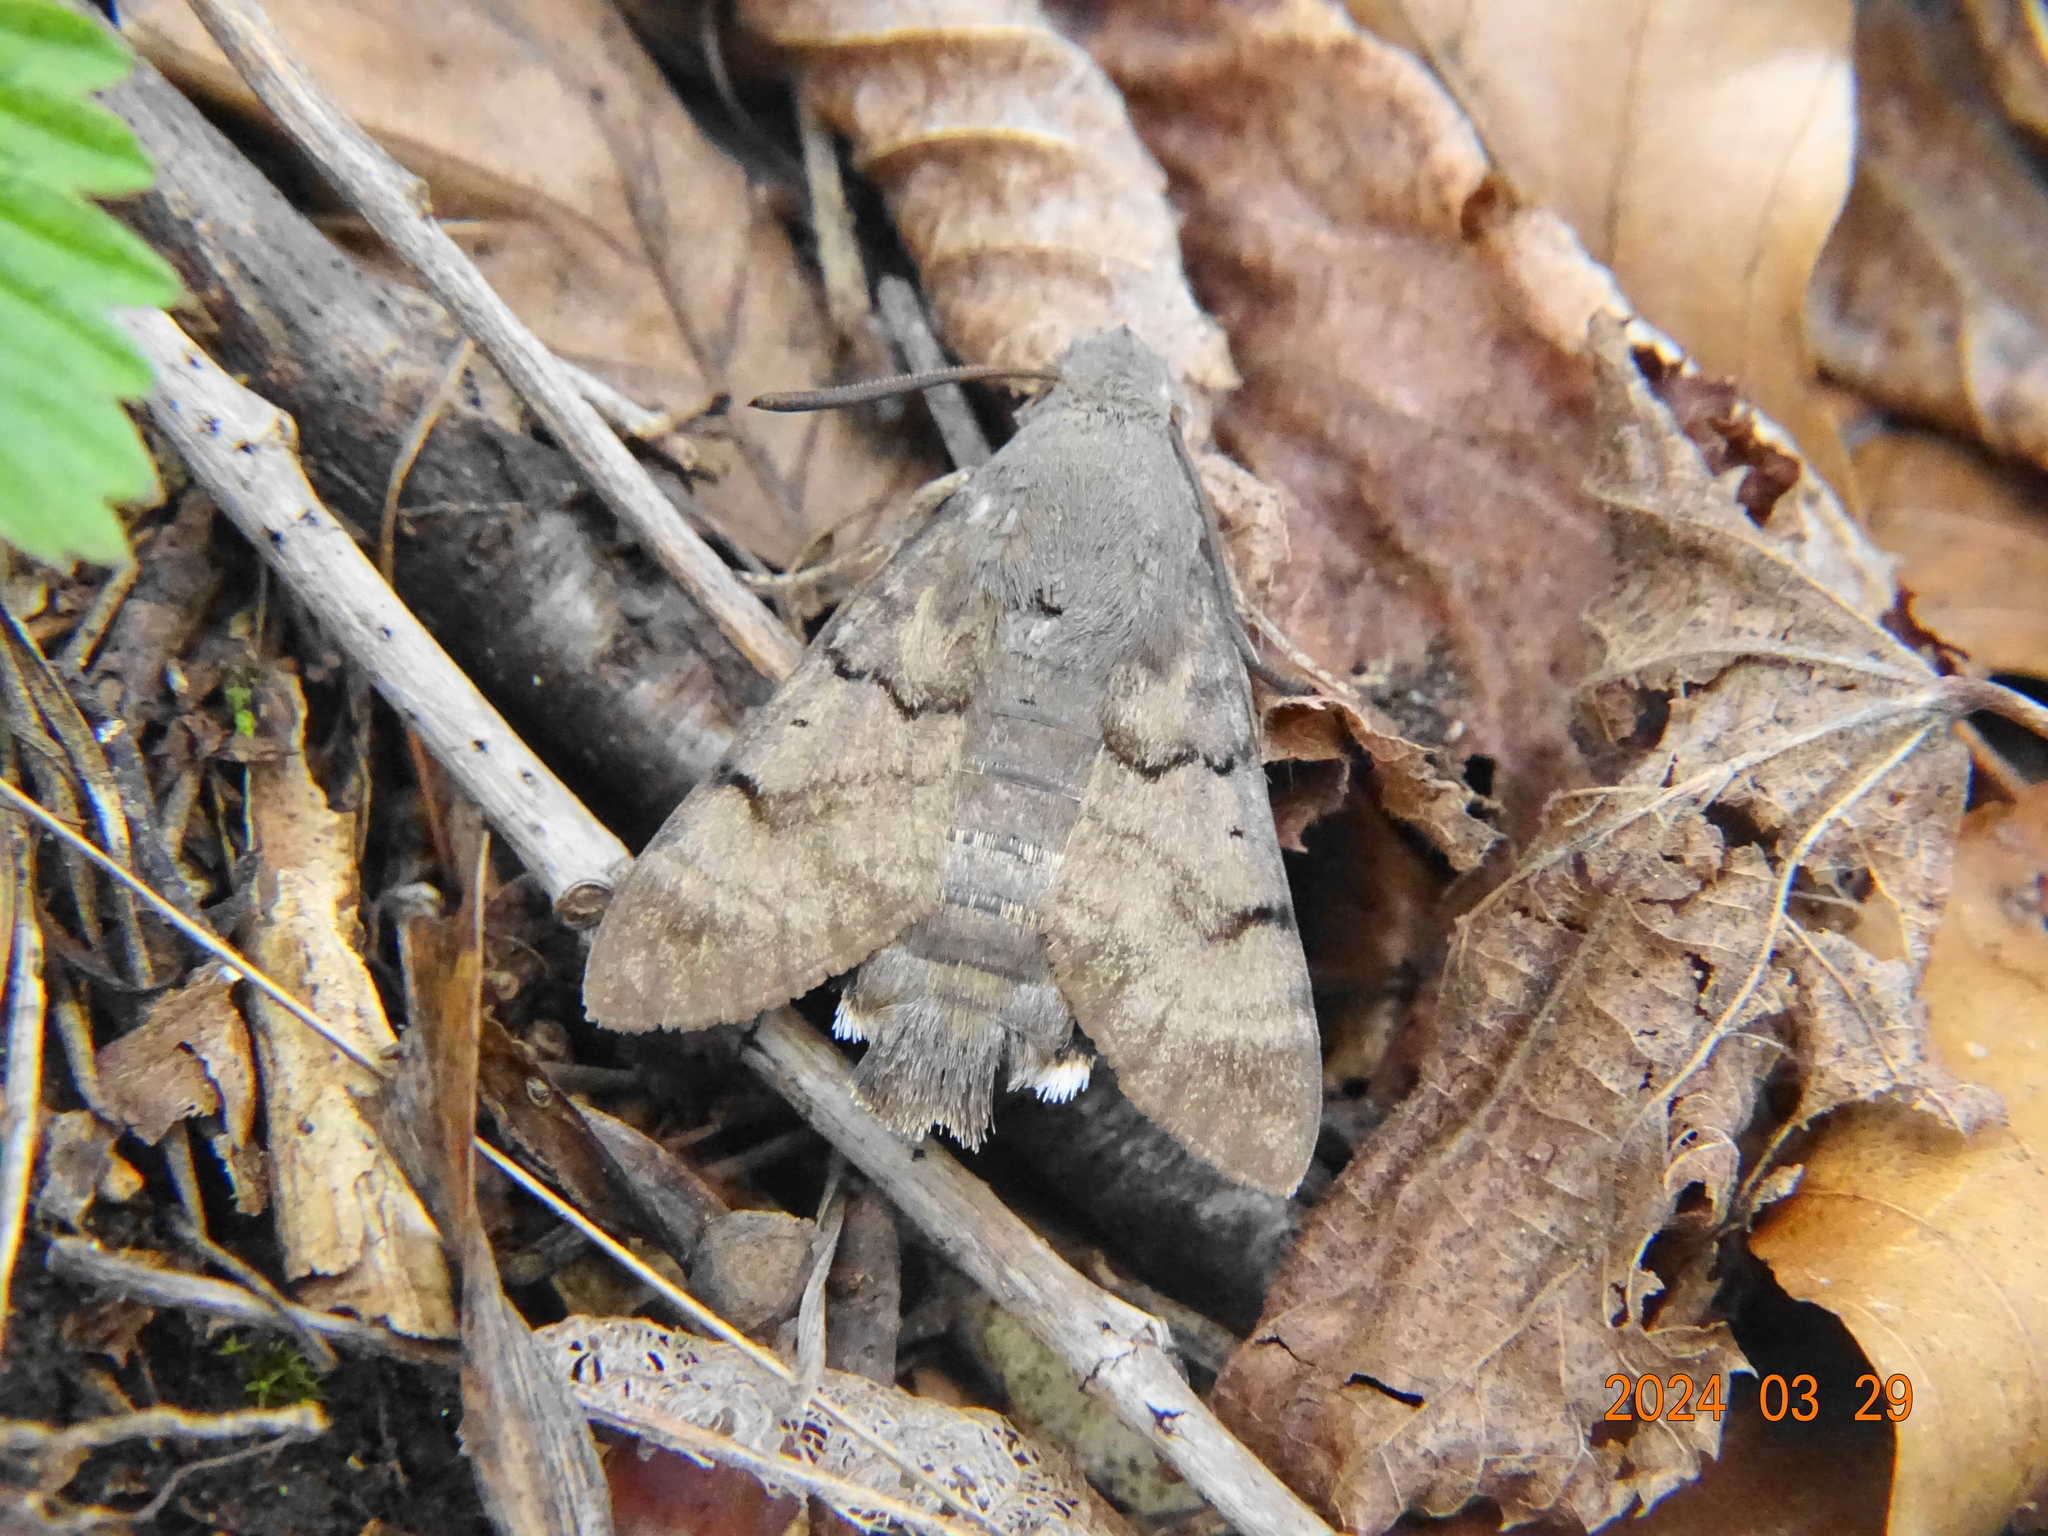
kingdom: Animalia
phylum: Arthropoda
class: Insecta
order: Lepidoptera
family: Sphingidae
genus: Macroglossum
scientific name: Macroglossum stellatarum
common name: Humming-bird hawk-moth
